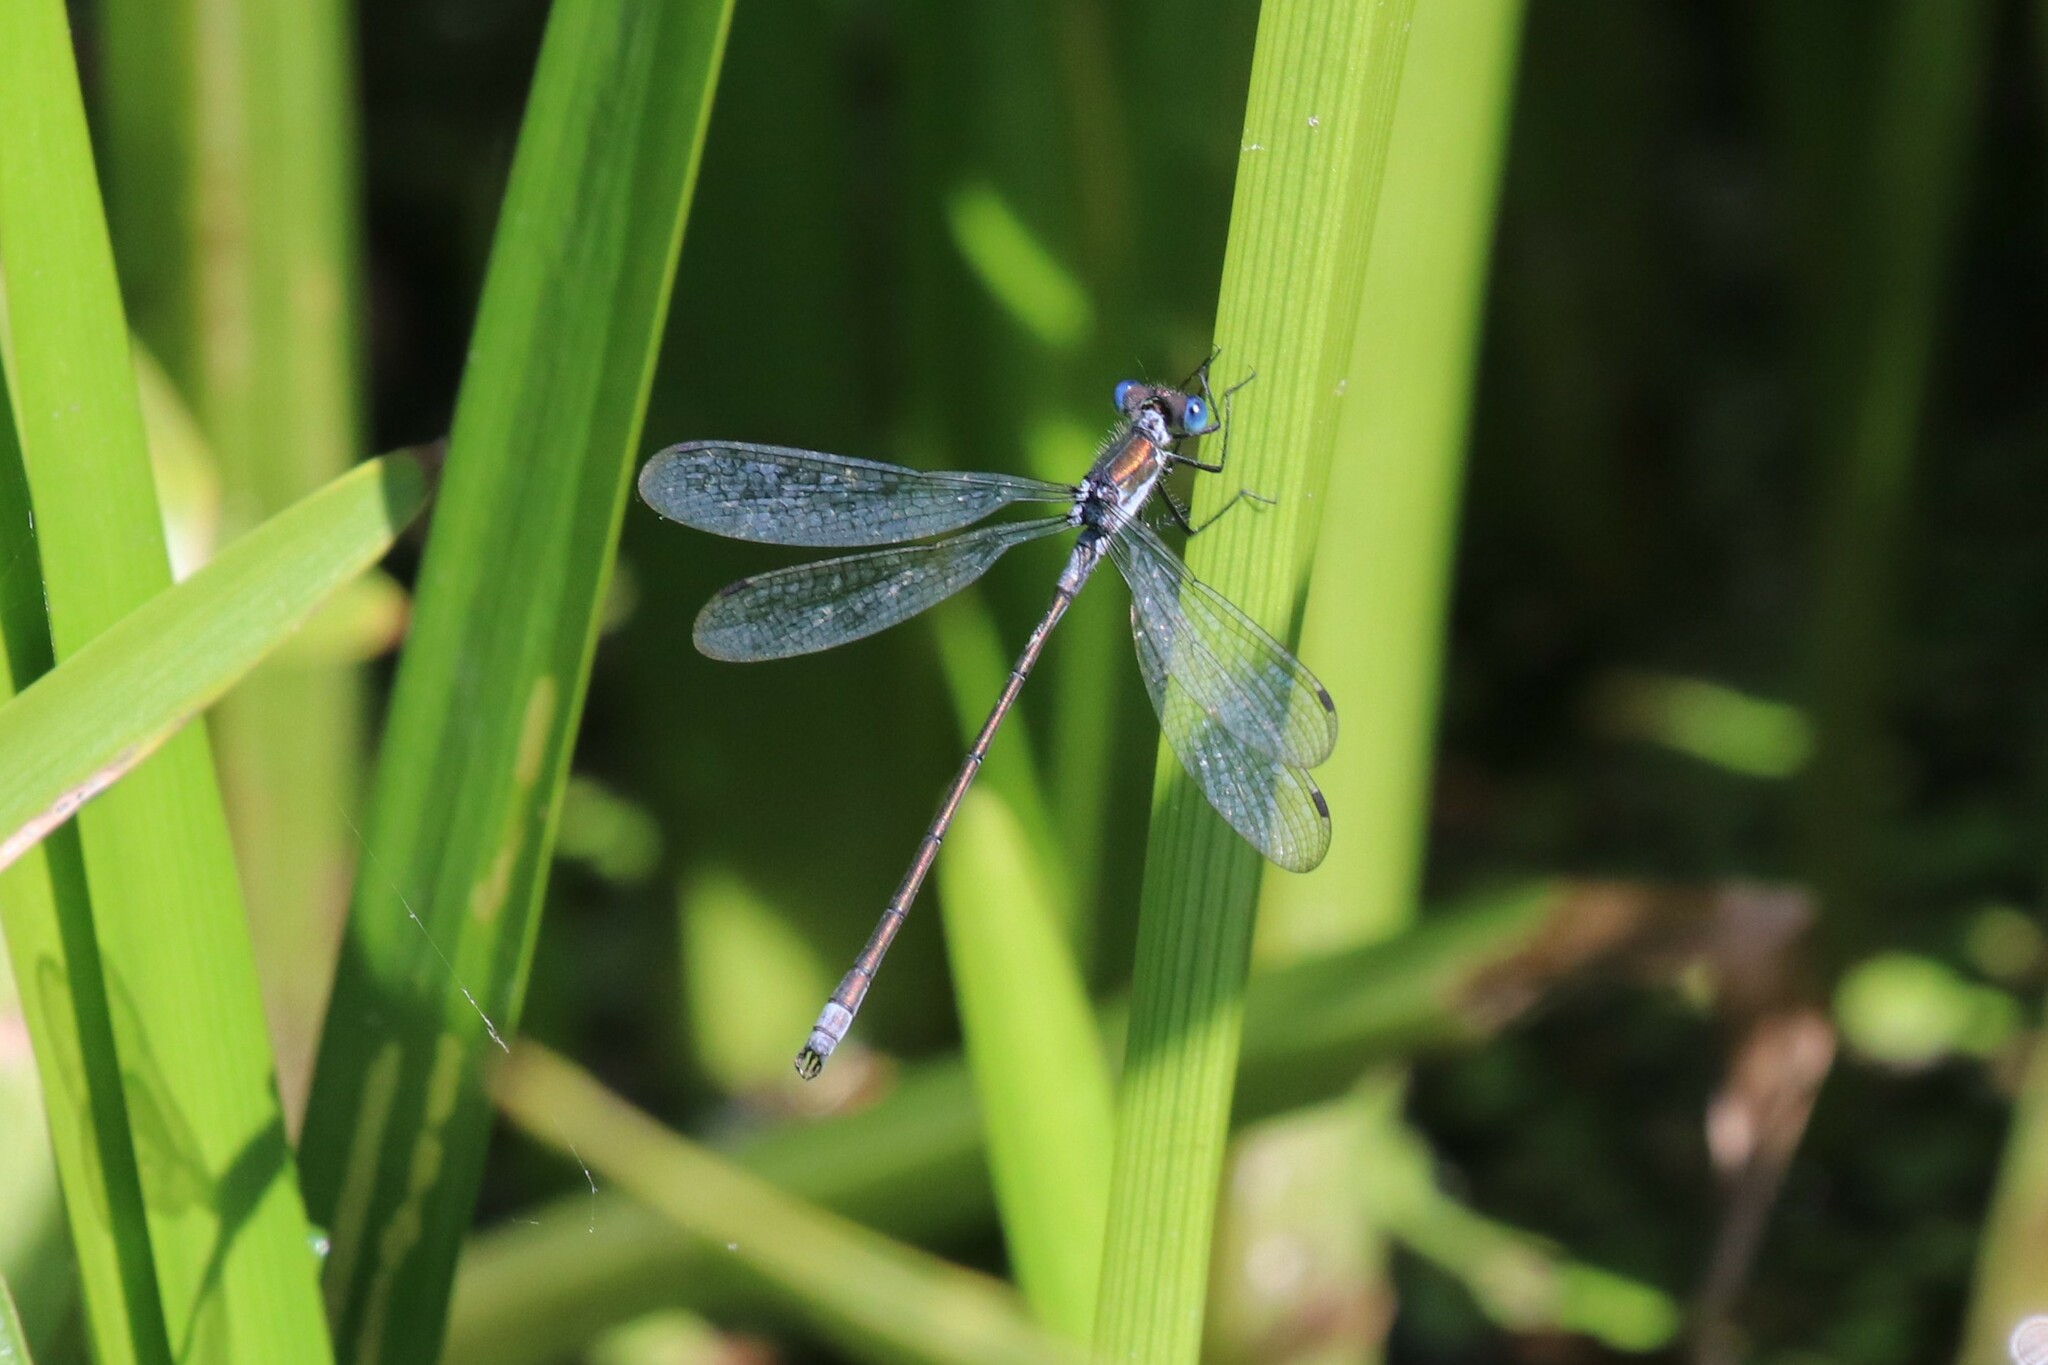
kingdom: Animalia
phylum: Arthropoda
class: Insecta
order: Odonata
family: Lestidae
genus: Lestes
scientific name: Lestes sponsa
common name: Common spreadwing
